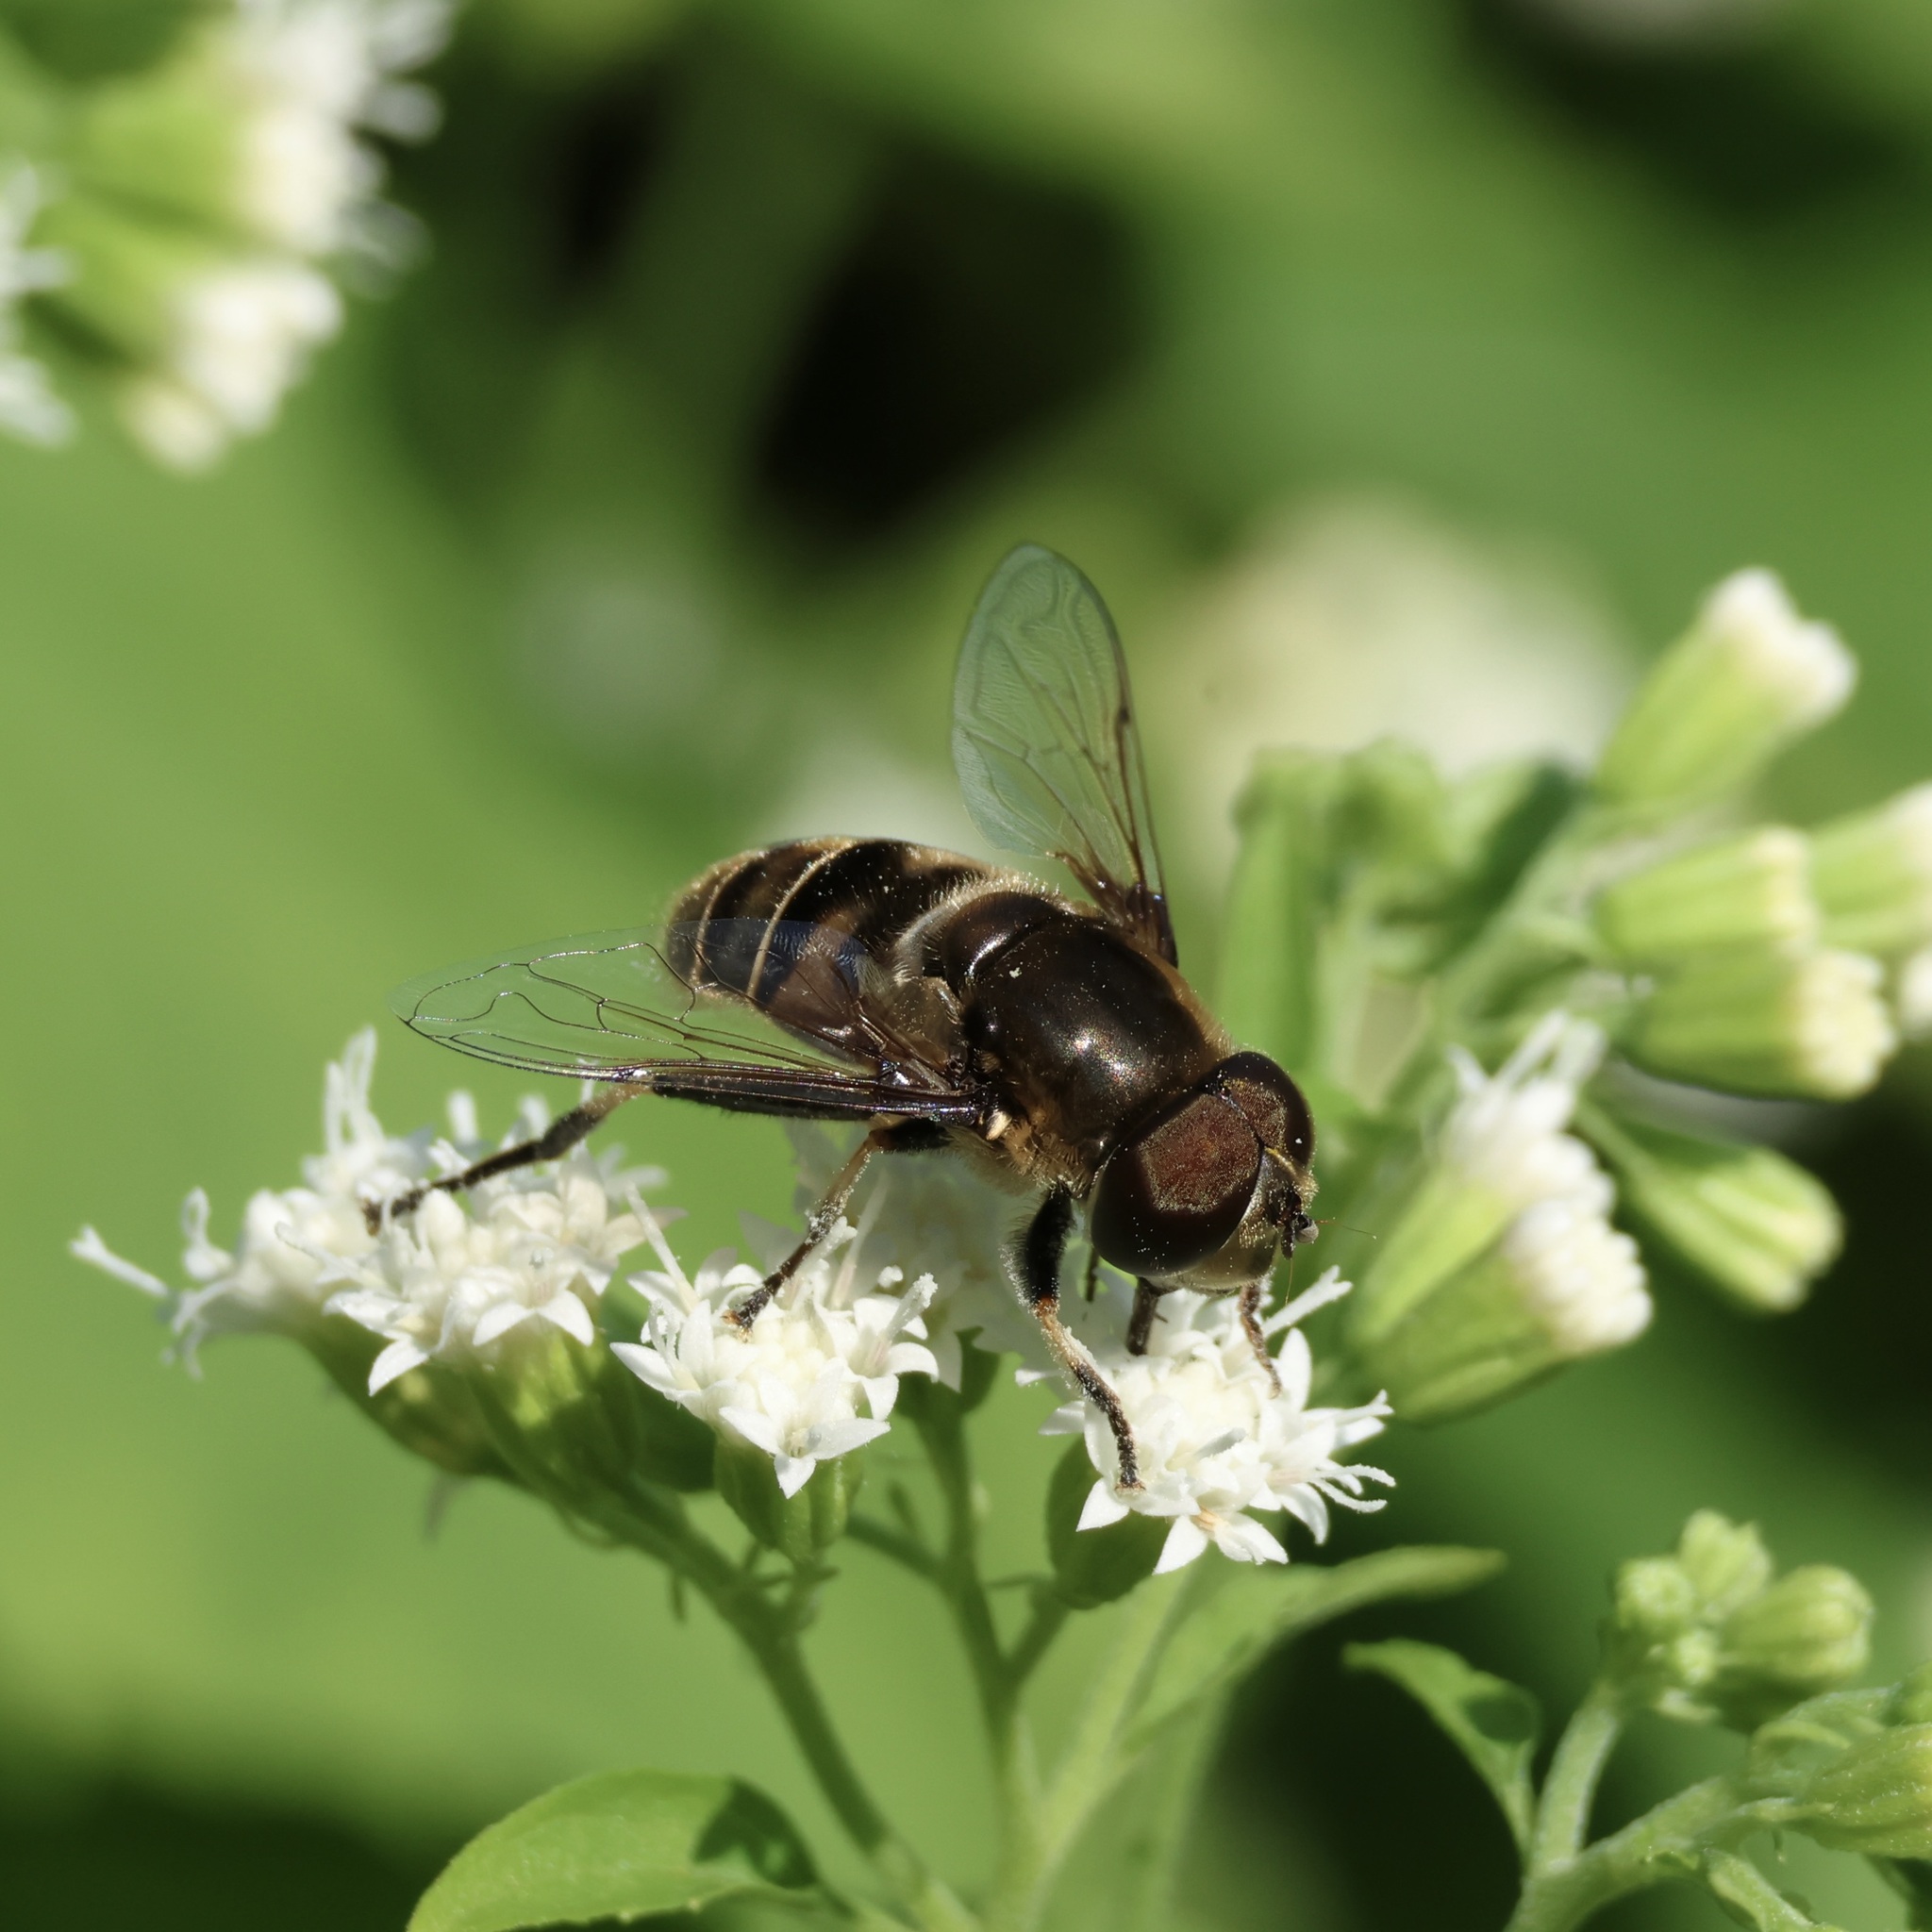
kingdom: Animalia
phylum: Arthropoda
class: Insecta
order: Diptera
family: Syrphidae
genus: Eristalis
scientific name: Eristalis dimidiata
